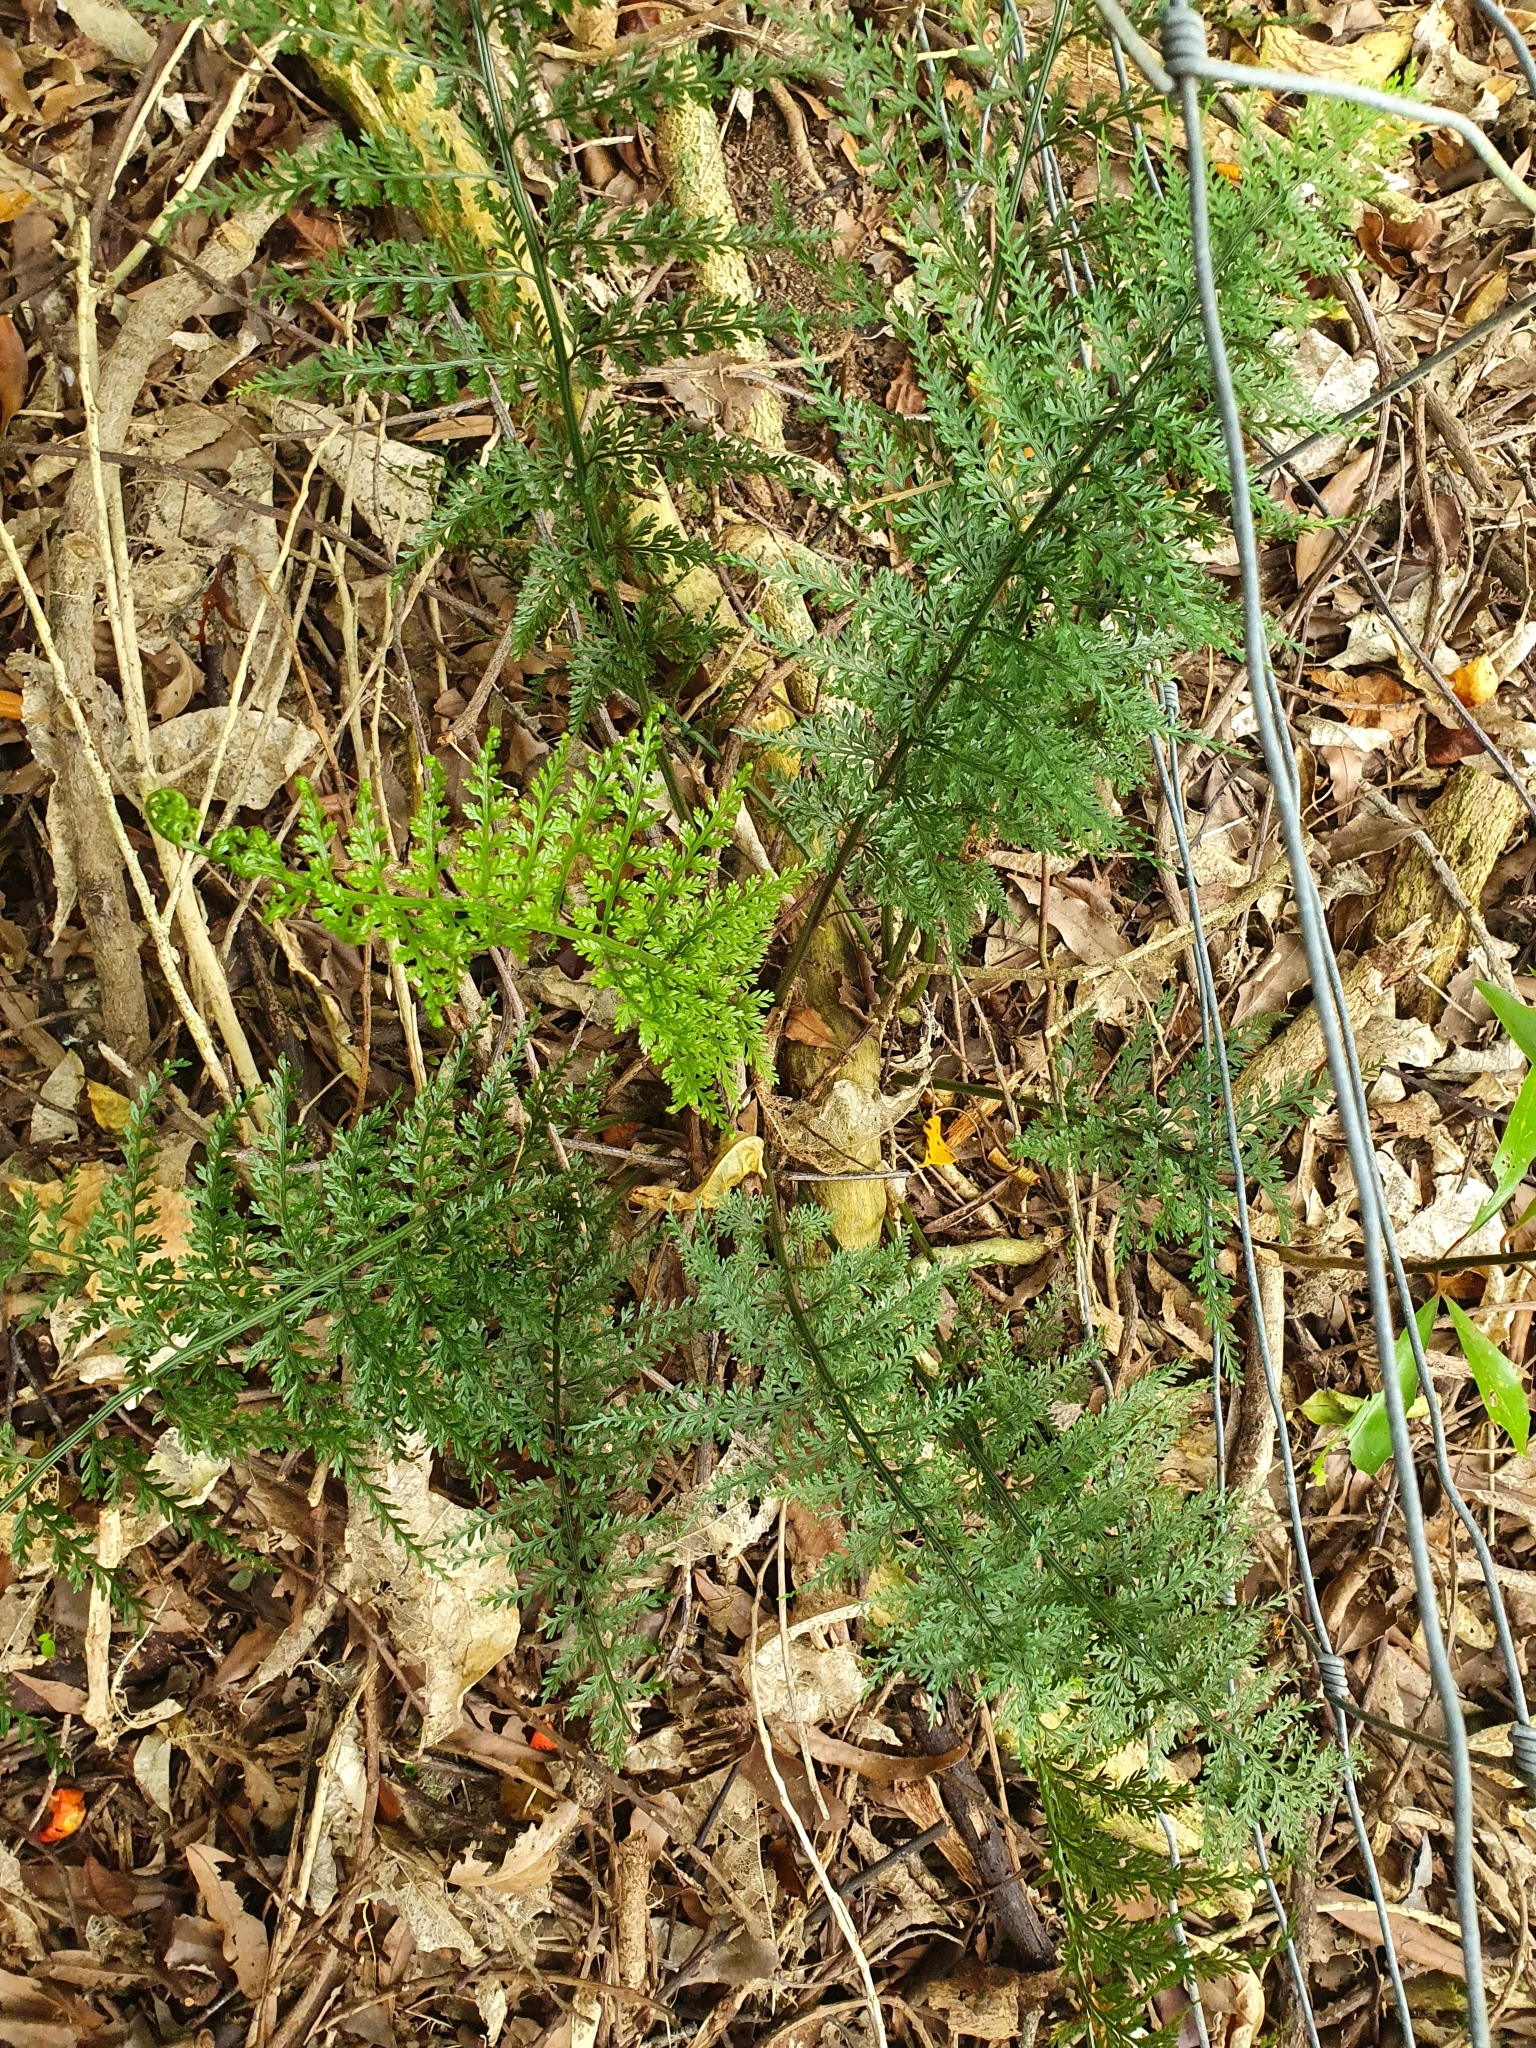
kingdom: Plantae
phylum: Tracheophyta
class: Polypodiopsida
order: Polypodiales
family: Aspleniaceae
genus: Asplenium
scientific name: Asplenium
